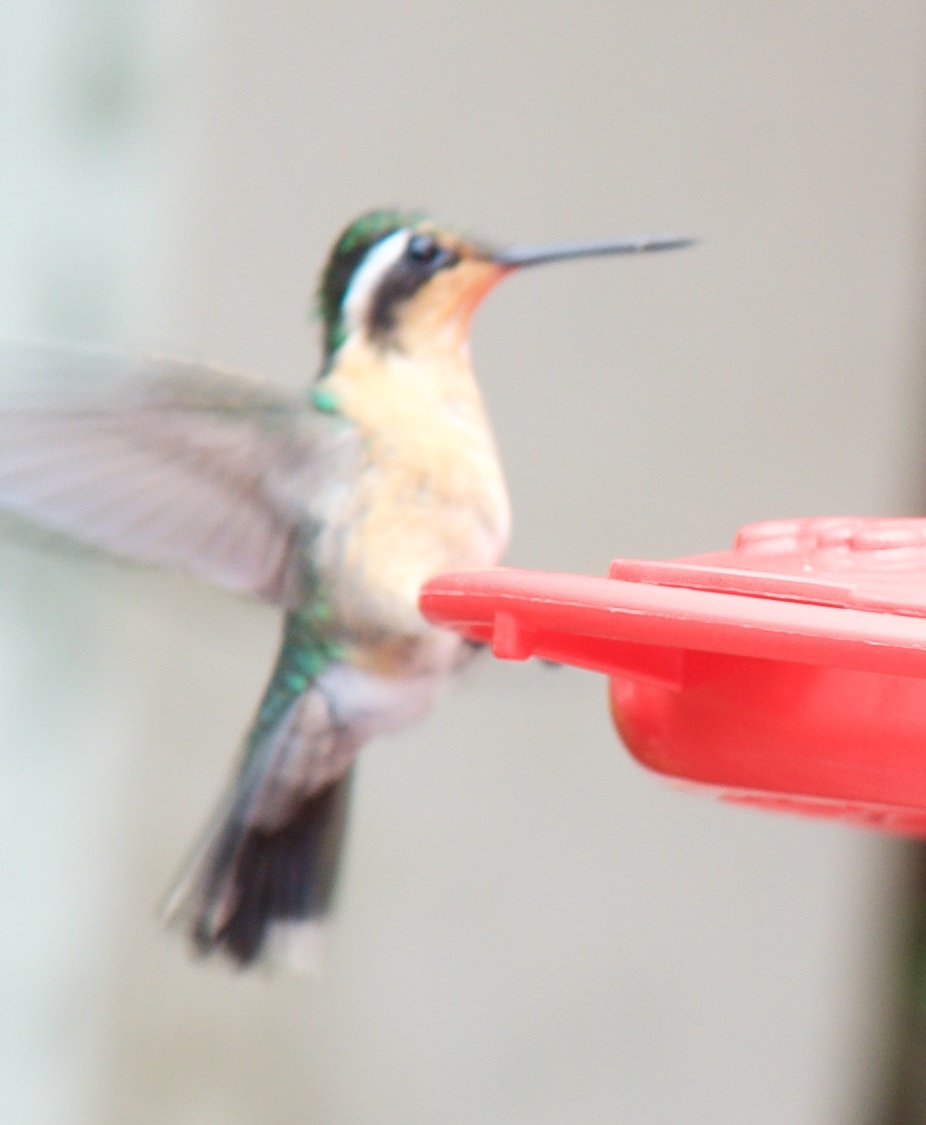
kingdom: Animalia
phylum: Chordata
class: Aves
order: Apodiformes
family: Trochilidae
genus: Lampornis
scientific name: Lampornis calolaemus
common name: Purple-throated mountain-gem
